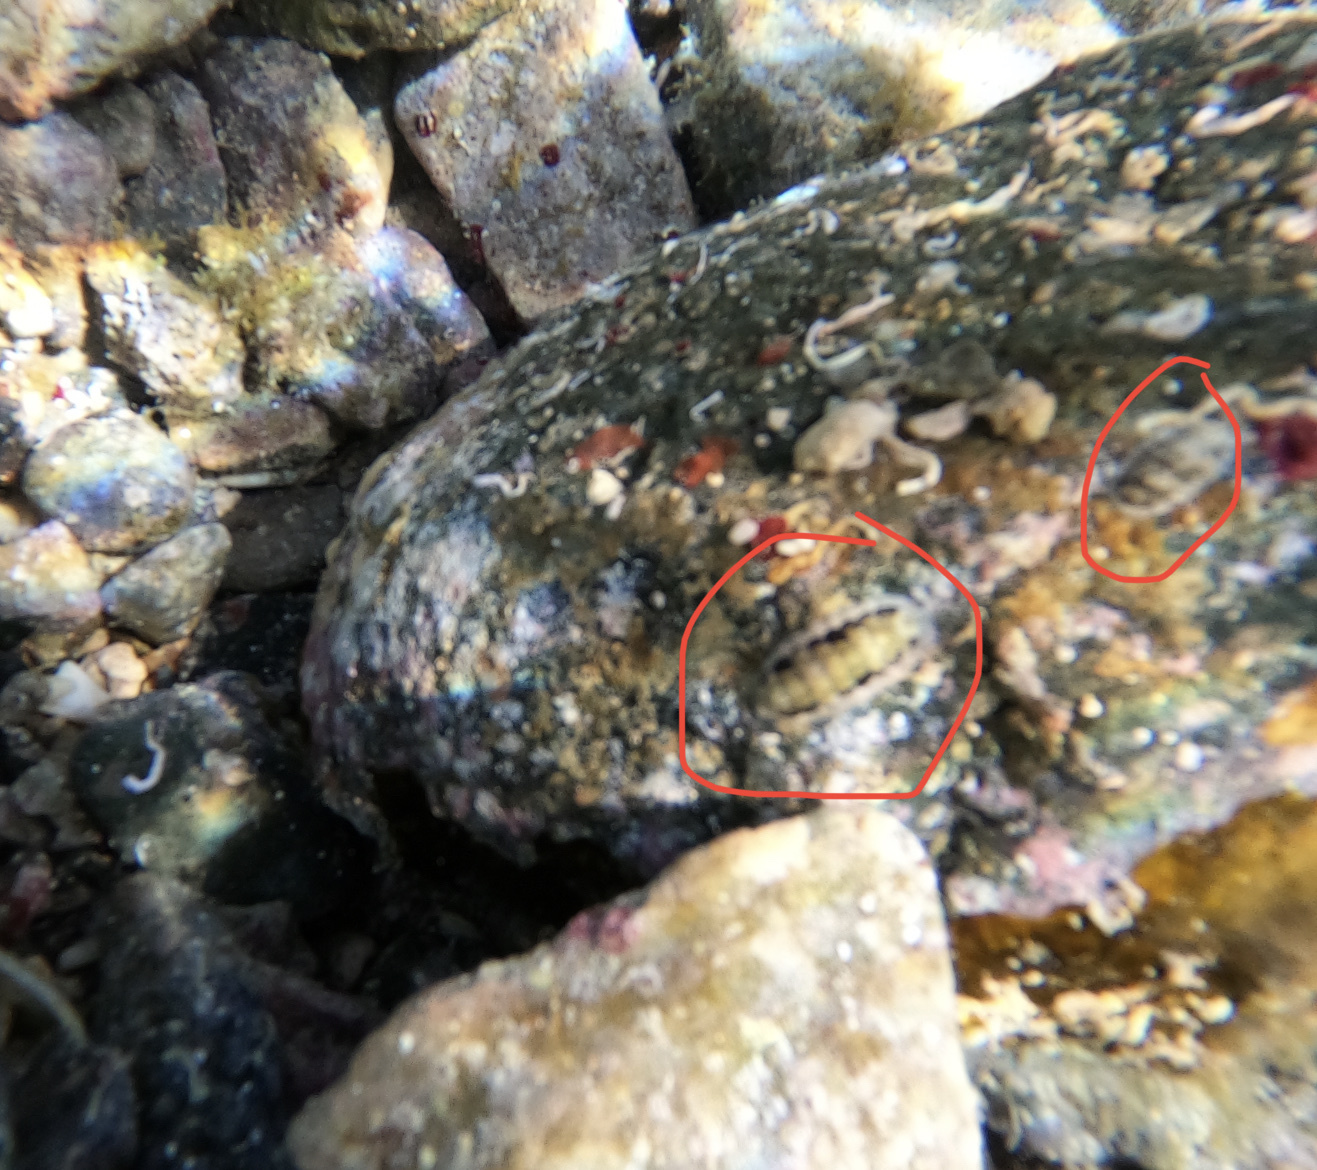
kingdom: Animalia
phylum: Mollusca
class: Polyplacophora
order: Chitonida
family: Ischnochitonidae
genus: Stenoplax
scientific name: Stenoplax purpurascens
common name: Caribbean slender chiton
